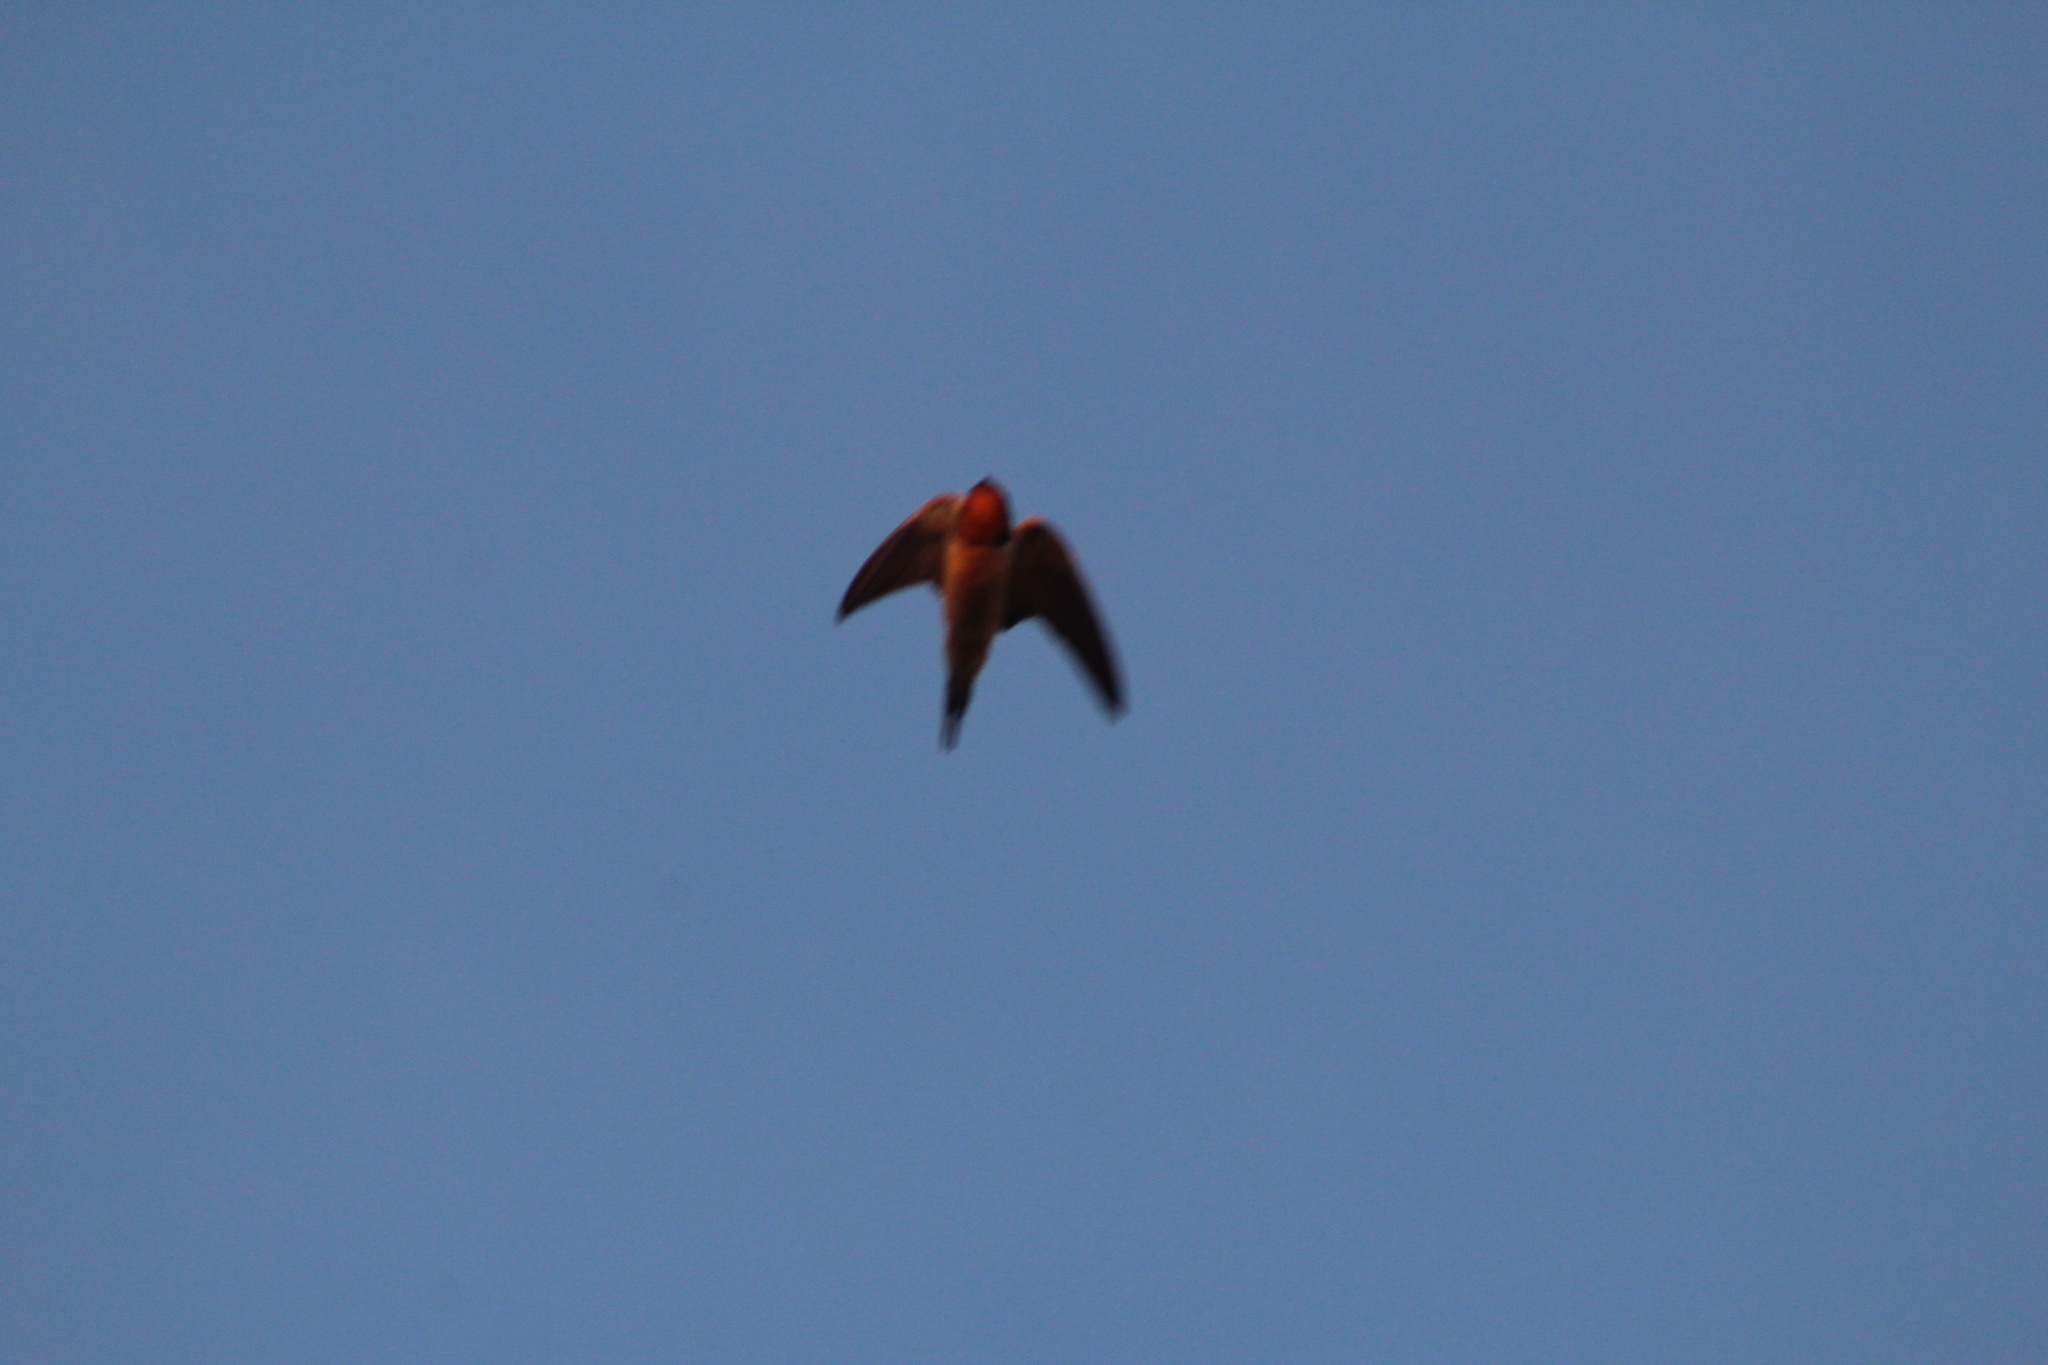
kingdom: Animalia
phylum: Chordata
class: Aves
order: Passeriformes
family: Hirundinidae
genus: Hirundo
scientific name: Hirundo rustica
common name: Barn swallow
